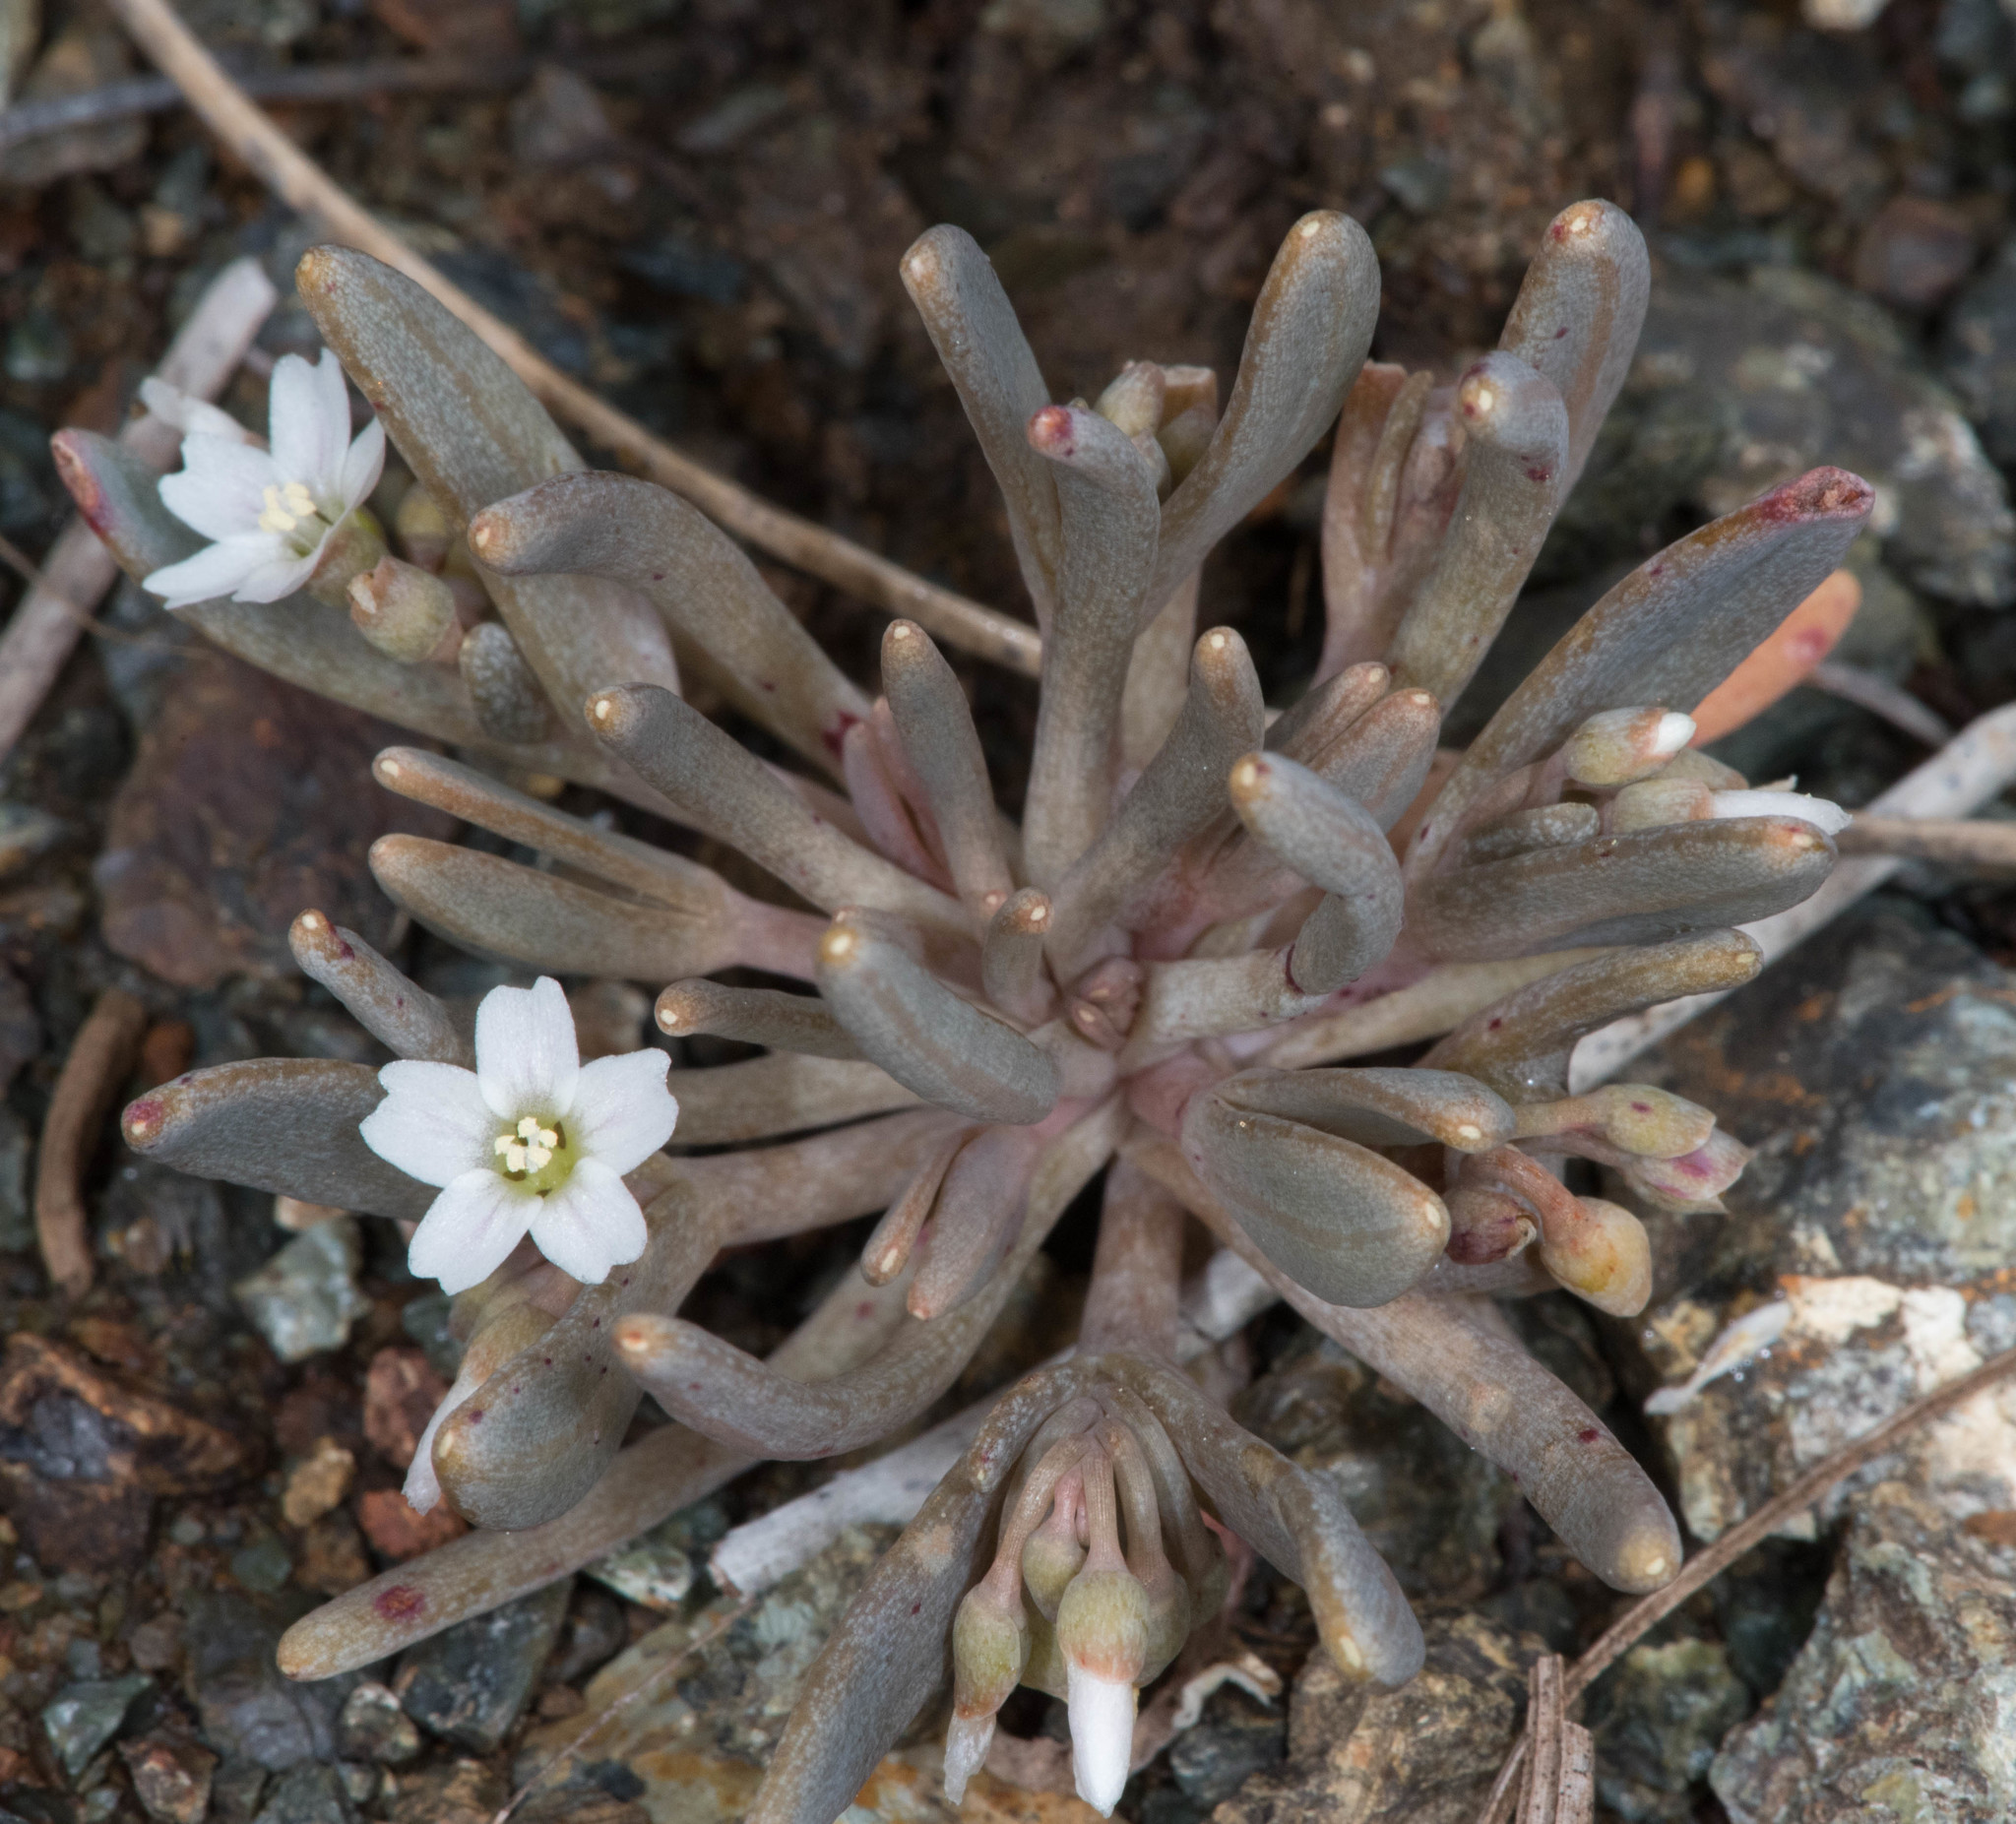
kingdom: Plantae
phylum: Tracheophyta
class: Magnoliopsida
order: Caryophyllales
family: Montiaceae
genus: Claytonia
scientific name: Claytonia exigua
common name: Pale spring beauty
